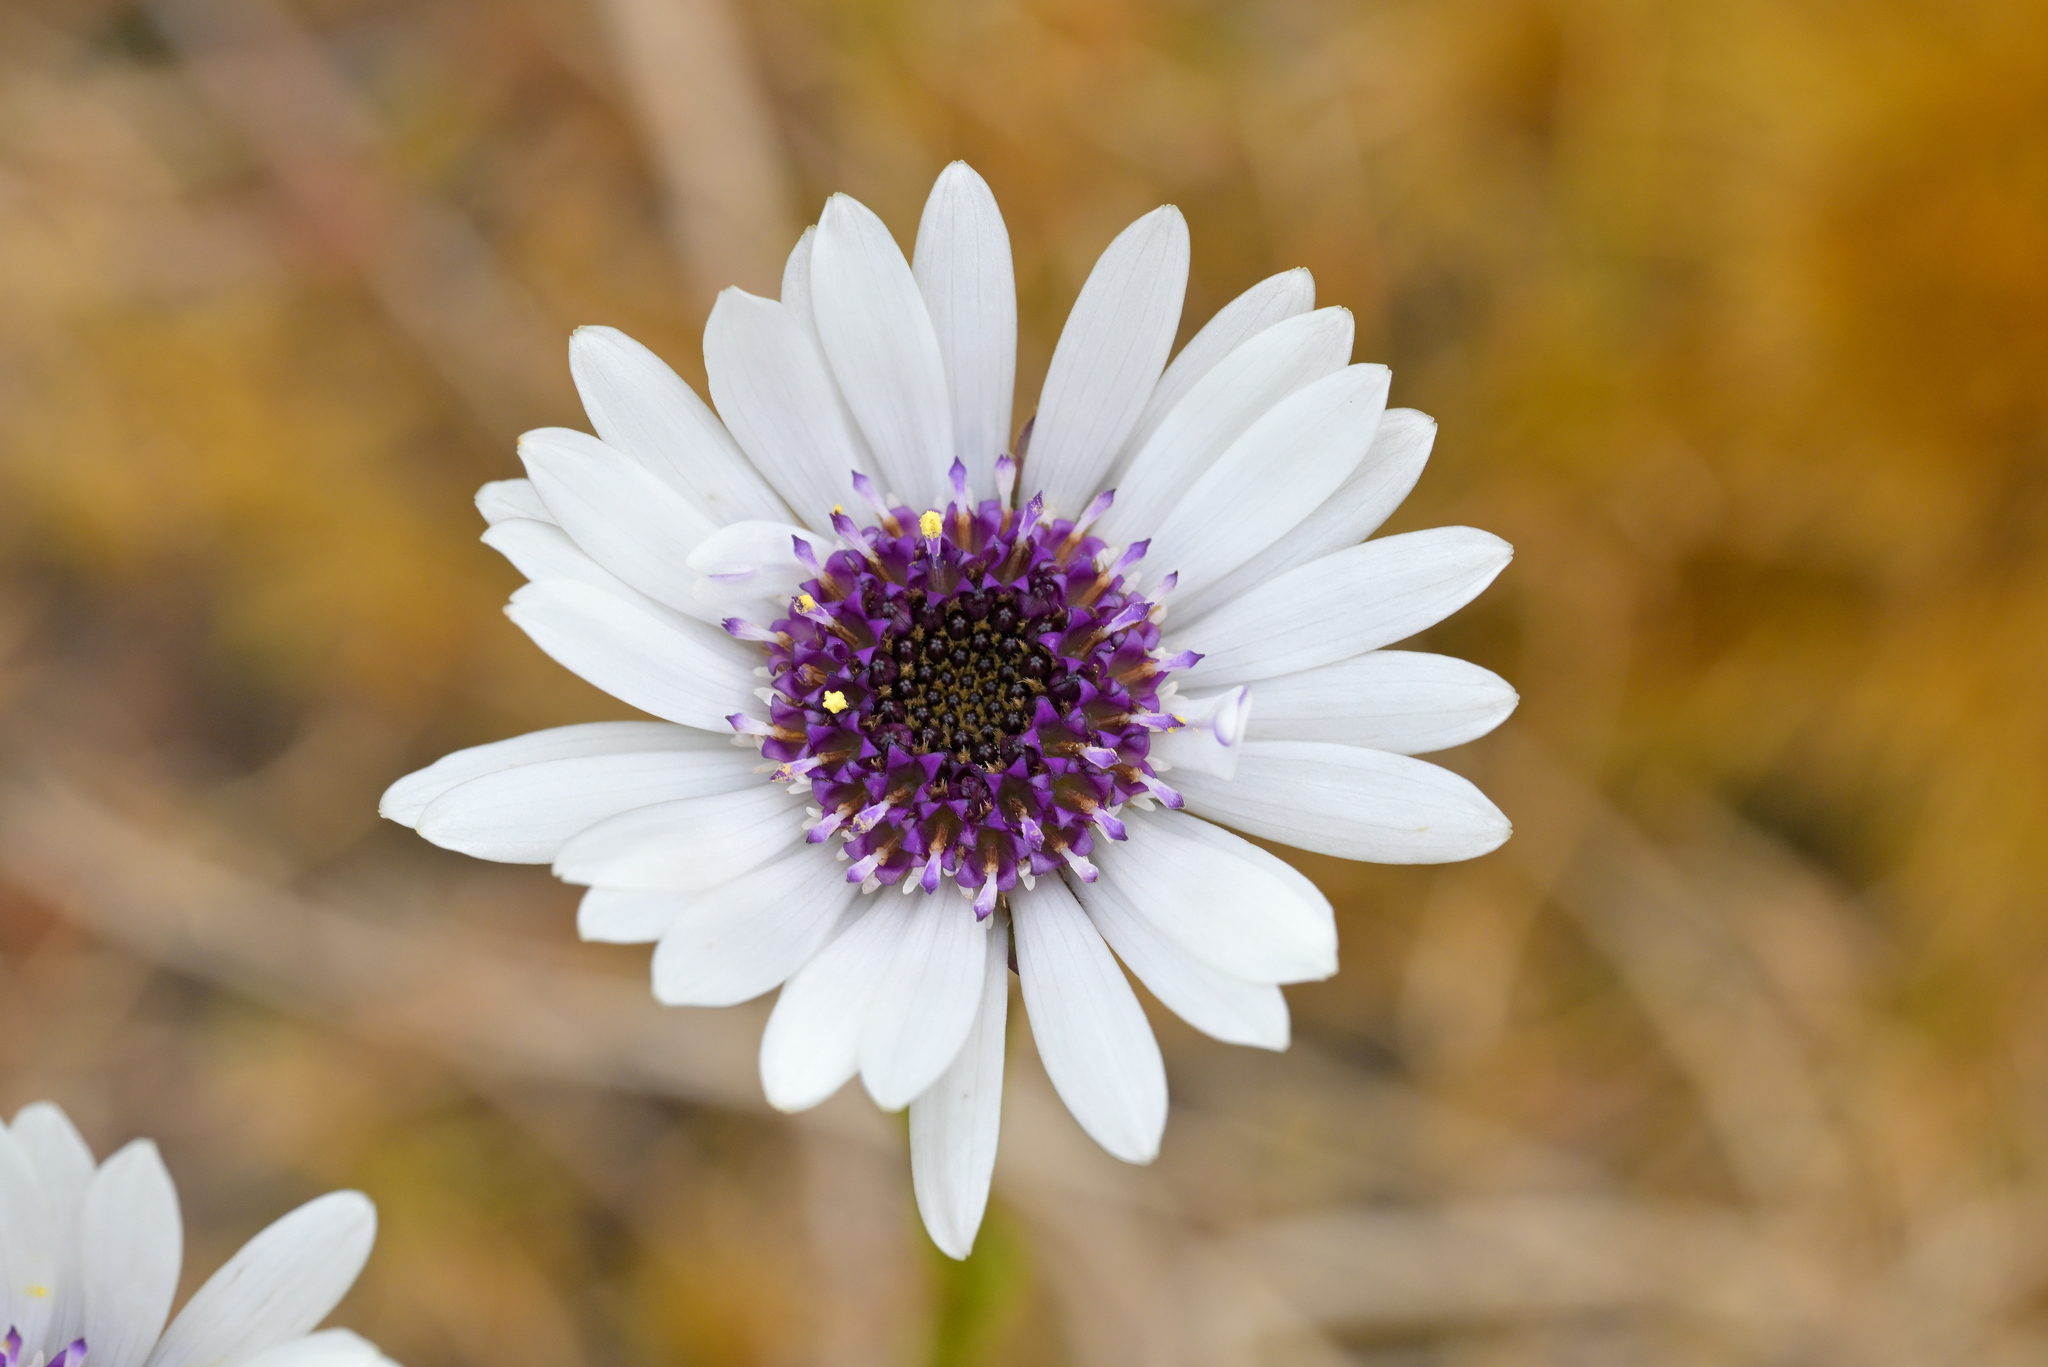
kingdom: Plantae
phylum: Tracheophyta
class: Magnoliopsida
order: Asterales
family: Asteraceae
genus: Damnamenia
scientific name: Damnamenia vernicosa
